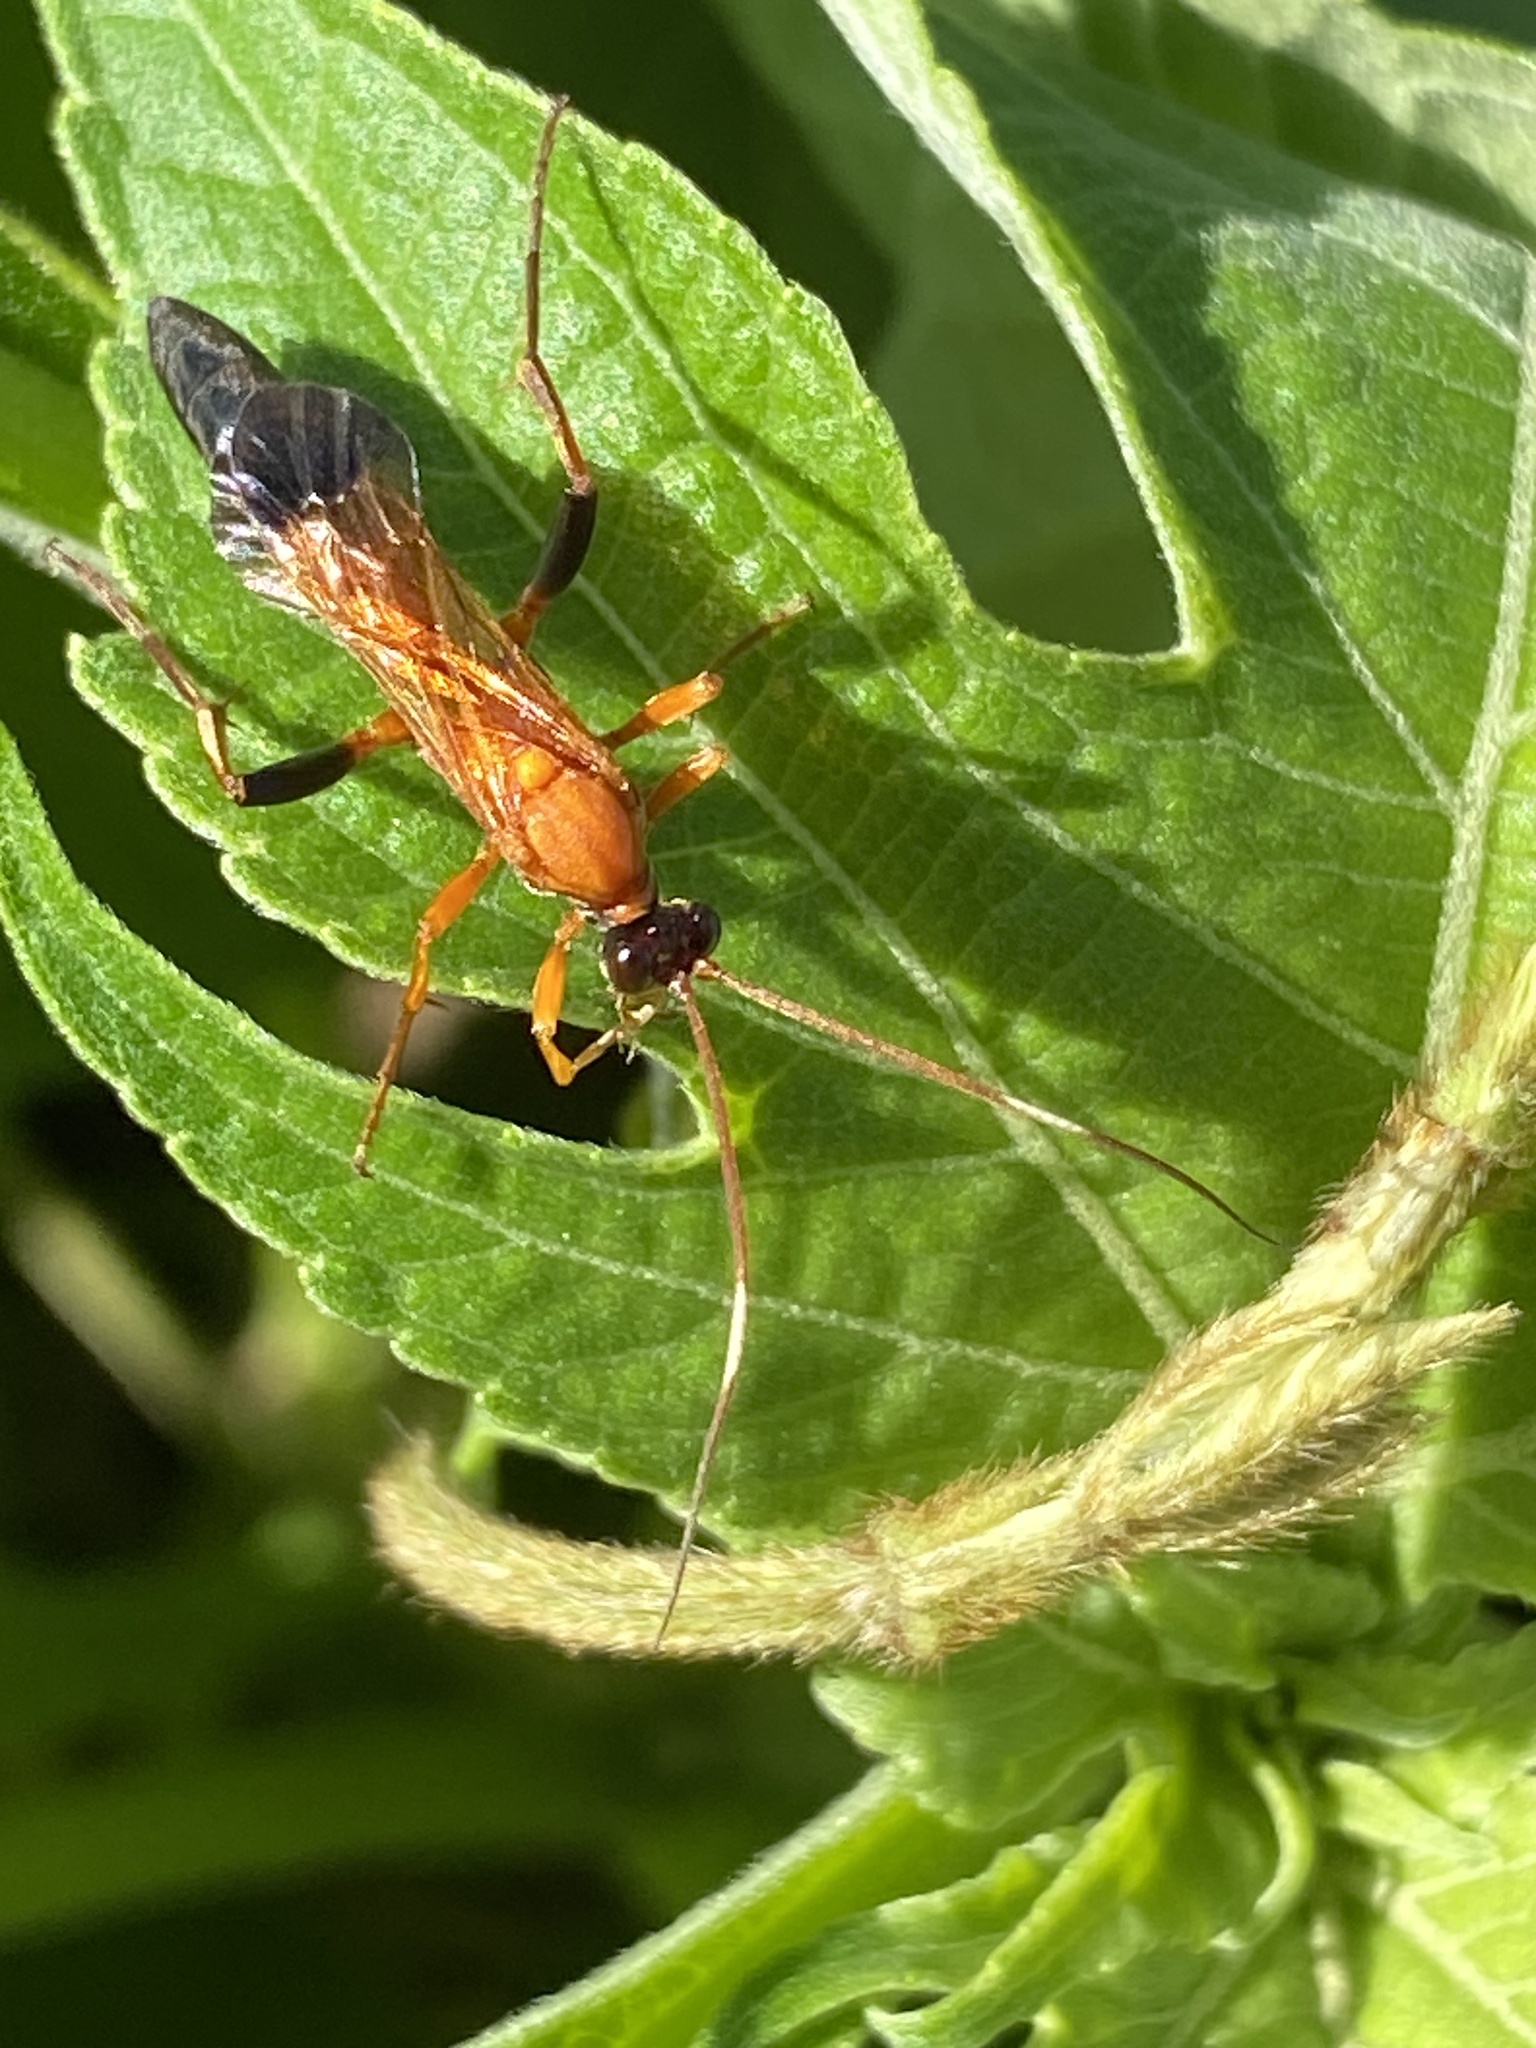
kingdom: Animalia
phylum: Arthropoda
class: Insecta
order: Hymenoptera
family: Ichneumonidae
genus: Ctenochares
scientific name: Ctenochares bicolorus
